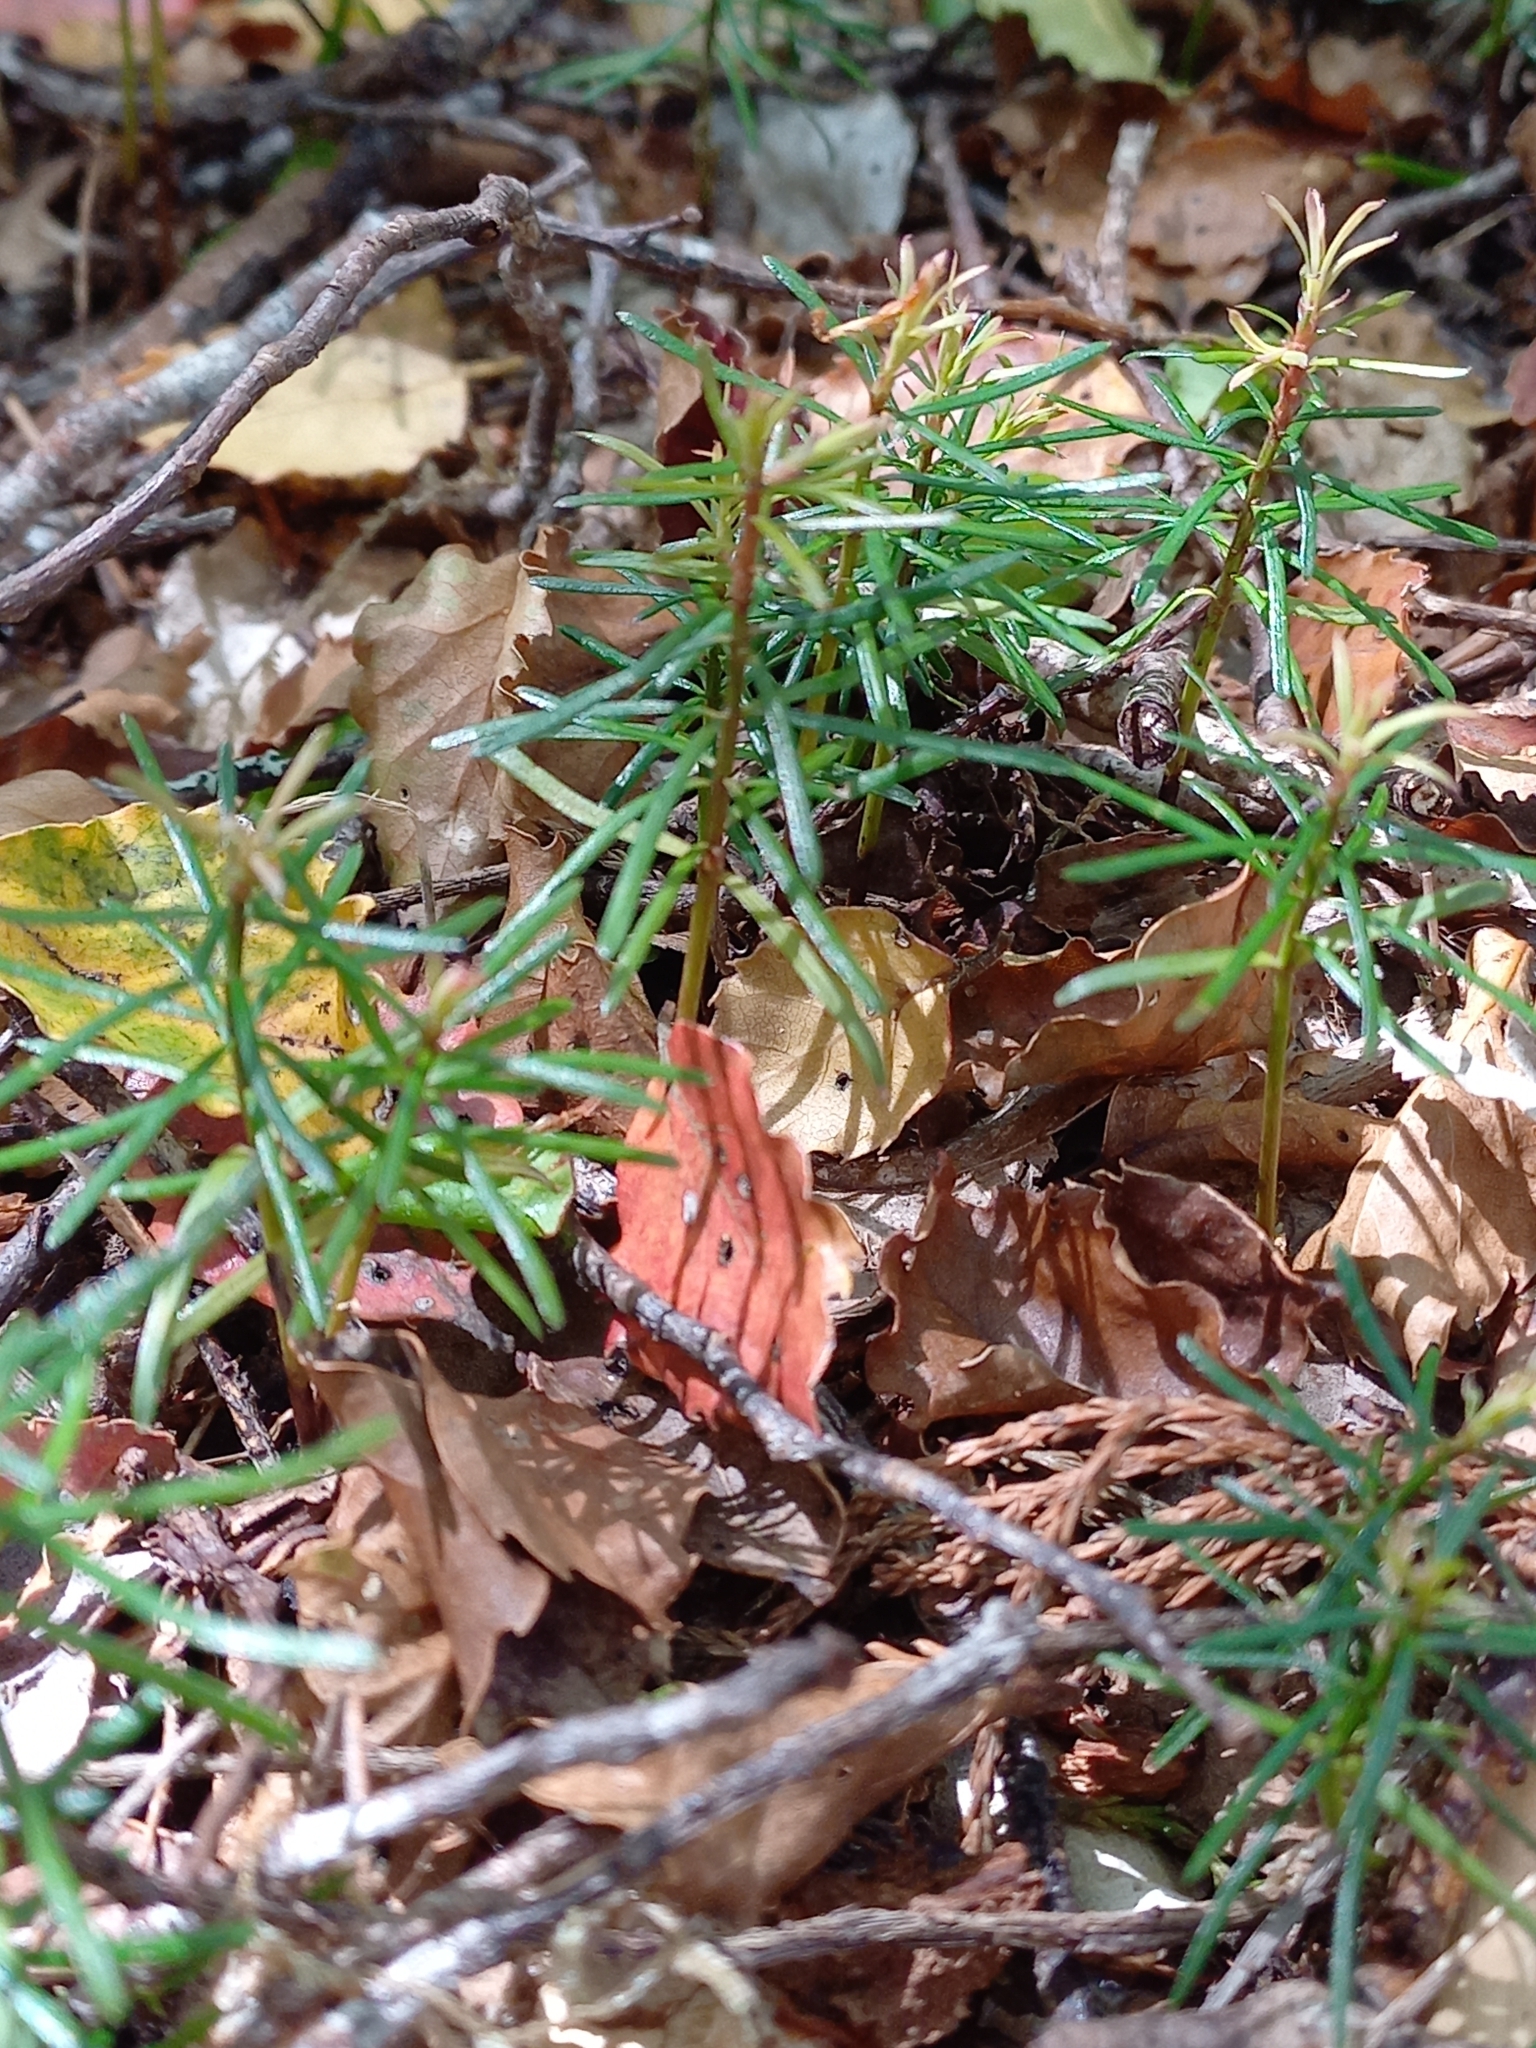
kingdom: Plantae
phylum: Tracheophyta
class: Pinopsida
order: Pinales
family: Podocarpaceae
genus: Prumnopitys
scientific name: Prumnopitys taxifolia
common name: Matai
